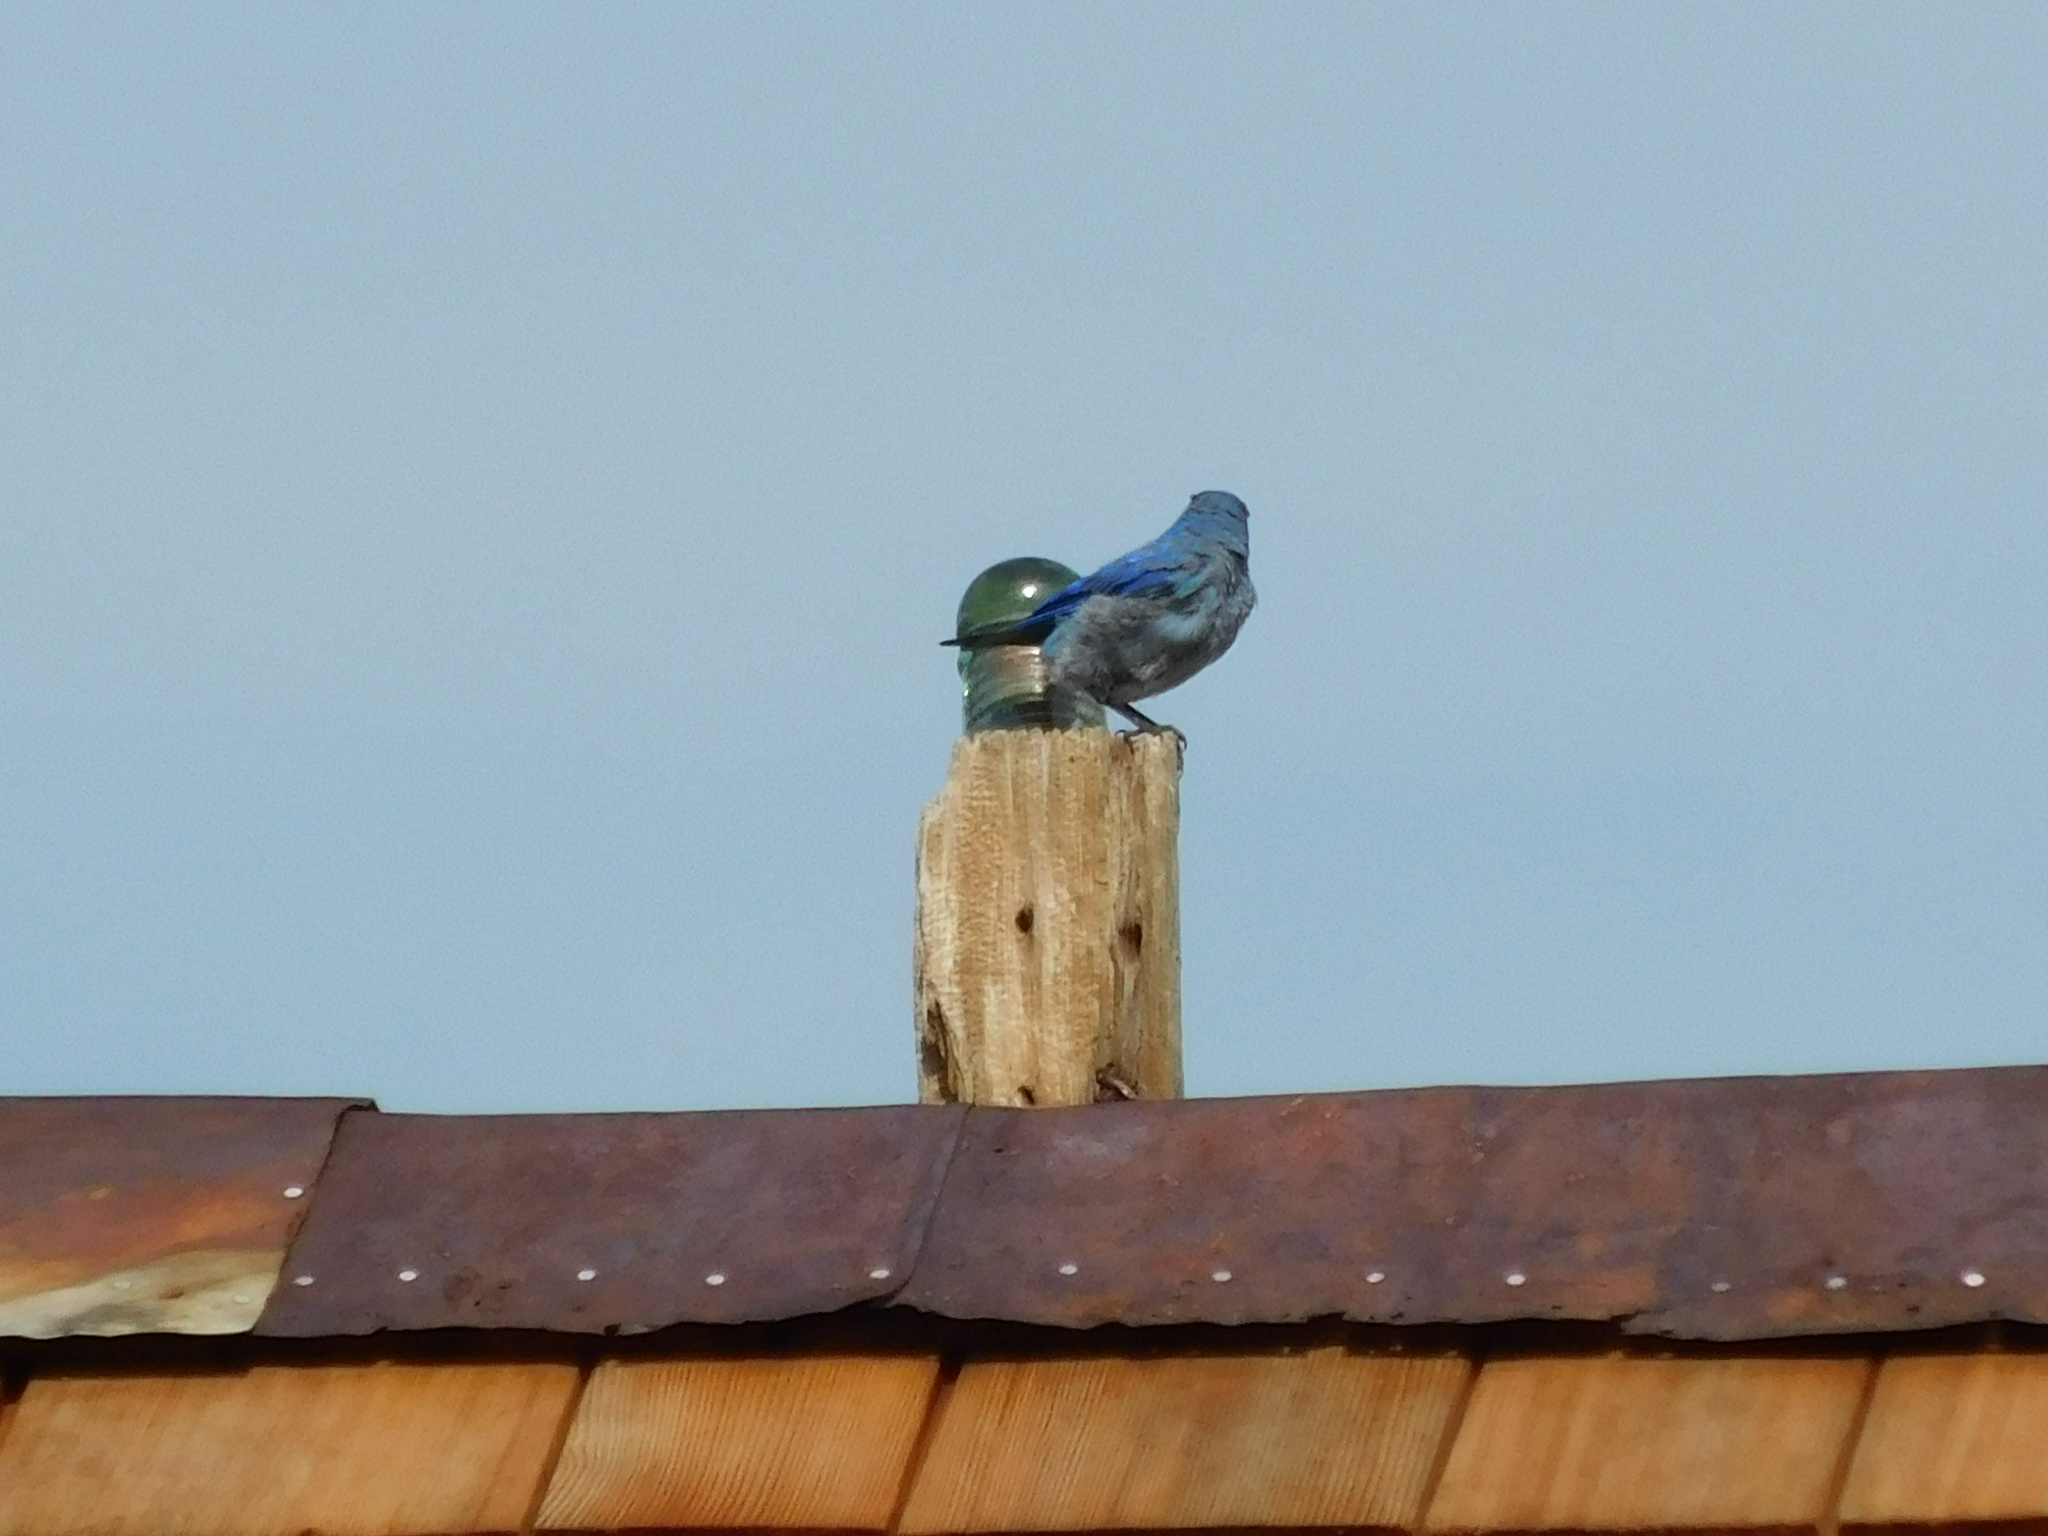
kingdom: Animalia
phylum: Chordata
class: Aves
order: Passeriformes
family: Turdidae
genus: Sialia
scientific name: Sialia currucoides
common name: Mountain bluebird
